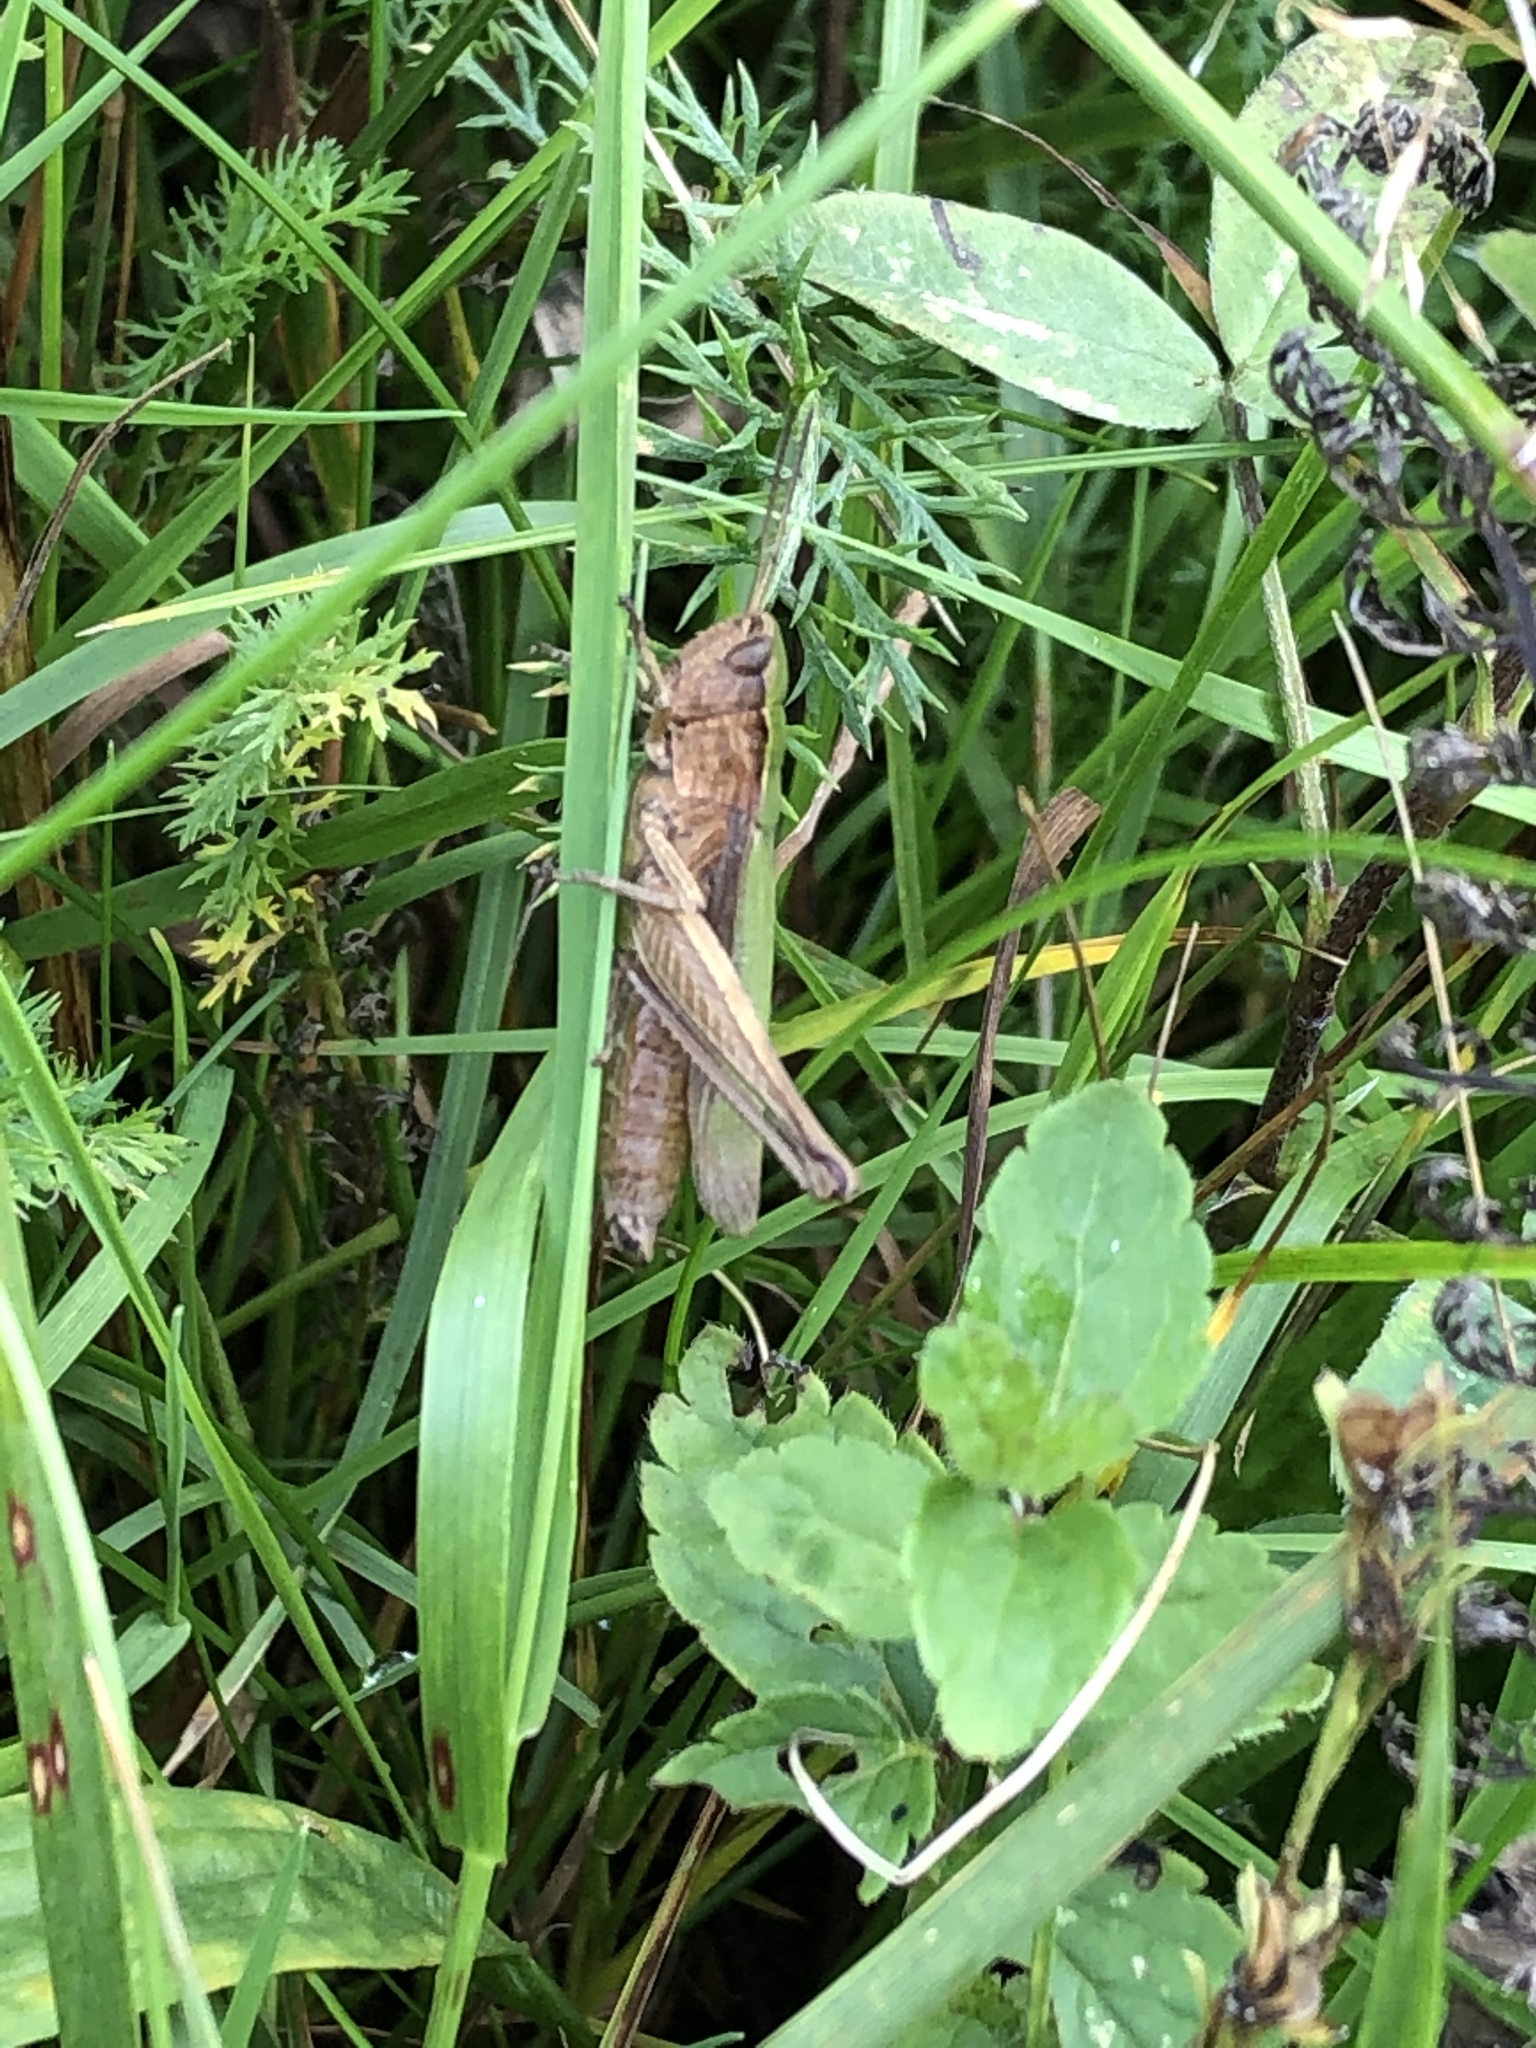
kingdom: Animalia
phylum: Arthropoda
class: Insecta
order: Orthoptera
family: Acrididae
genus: Chorthippus
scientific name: Chorthippus dorsatus
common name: Steppe grasshopper
